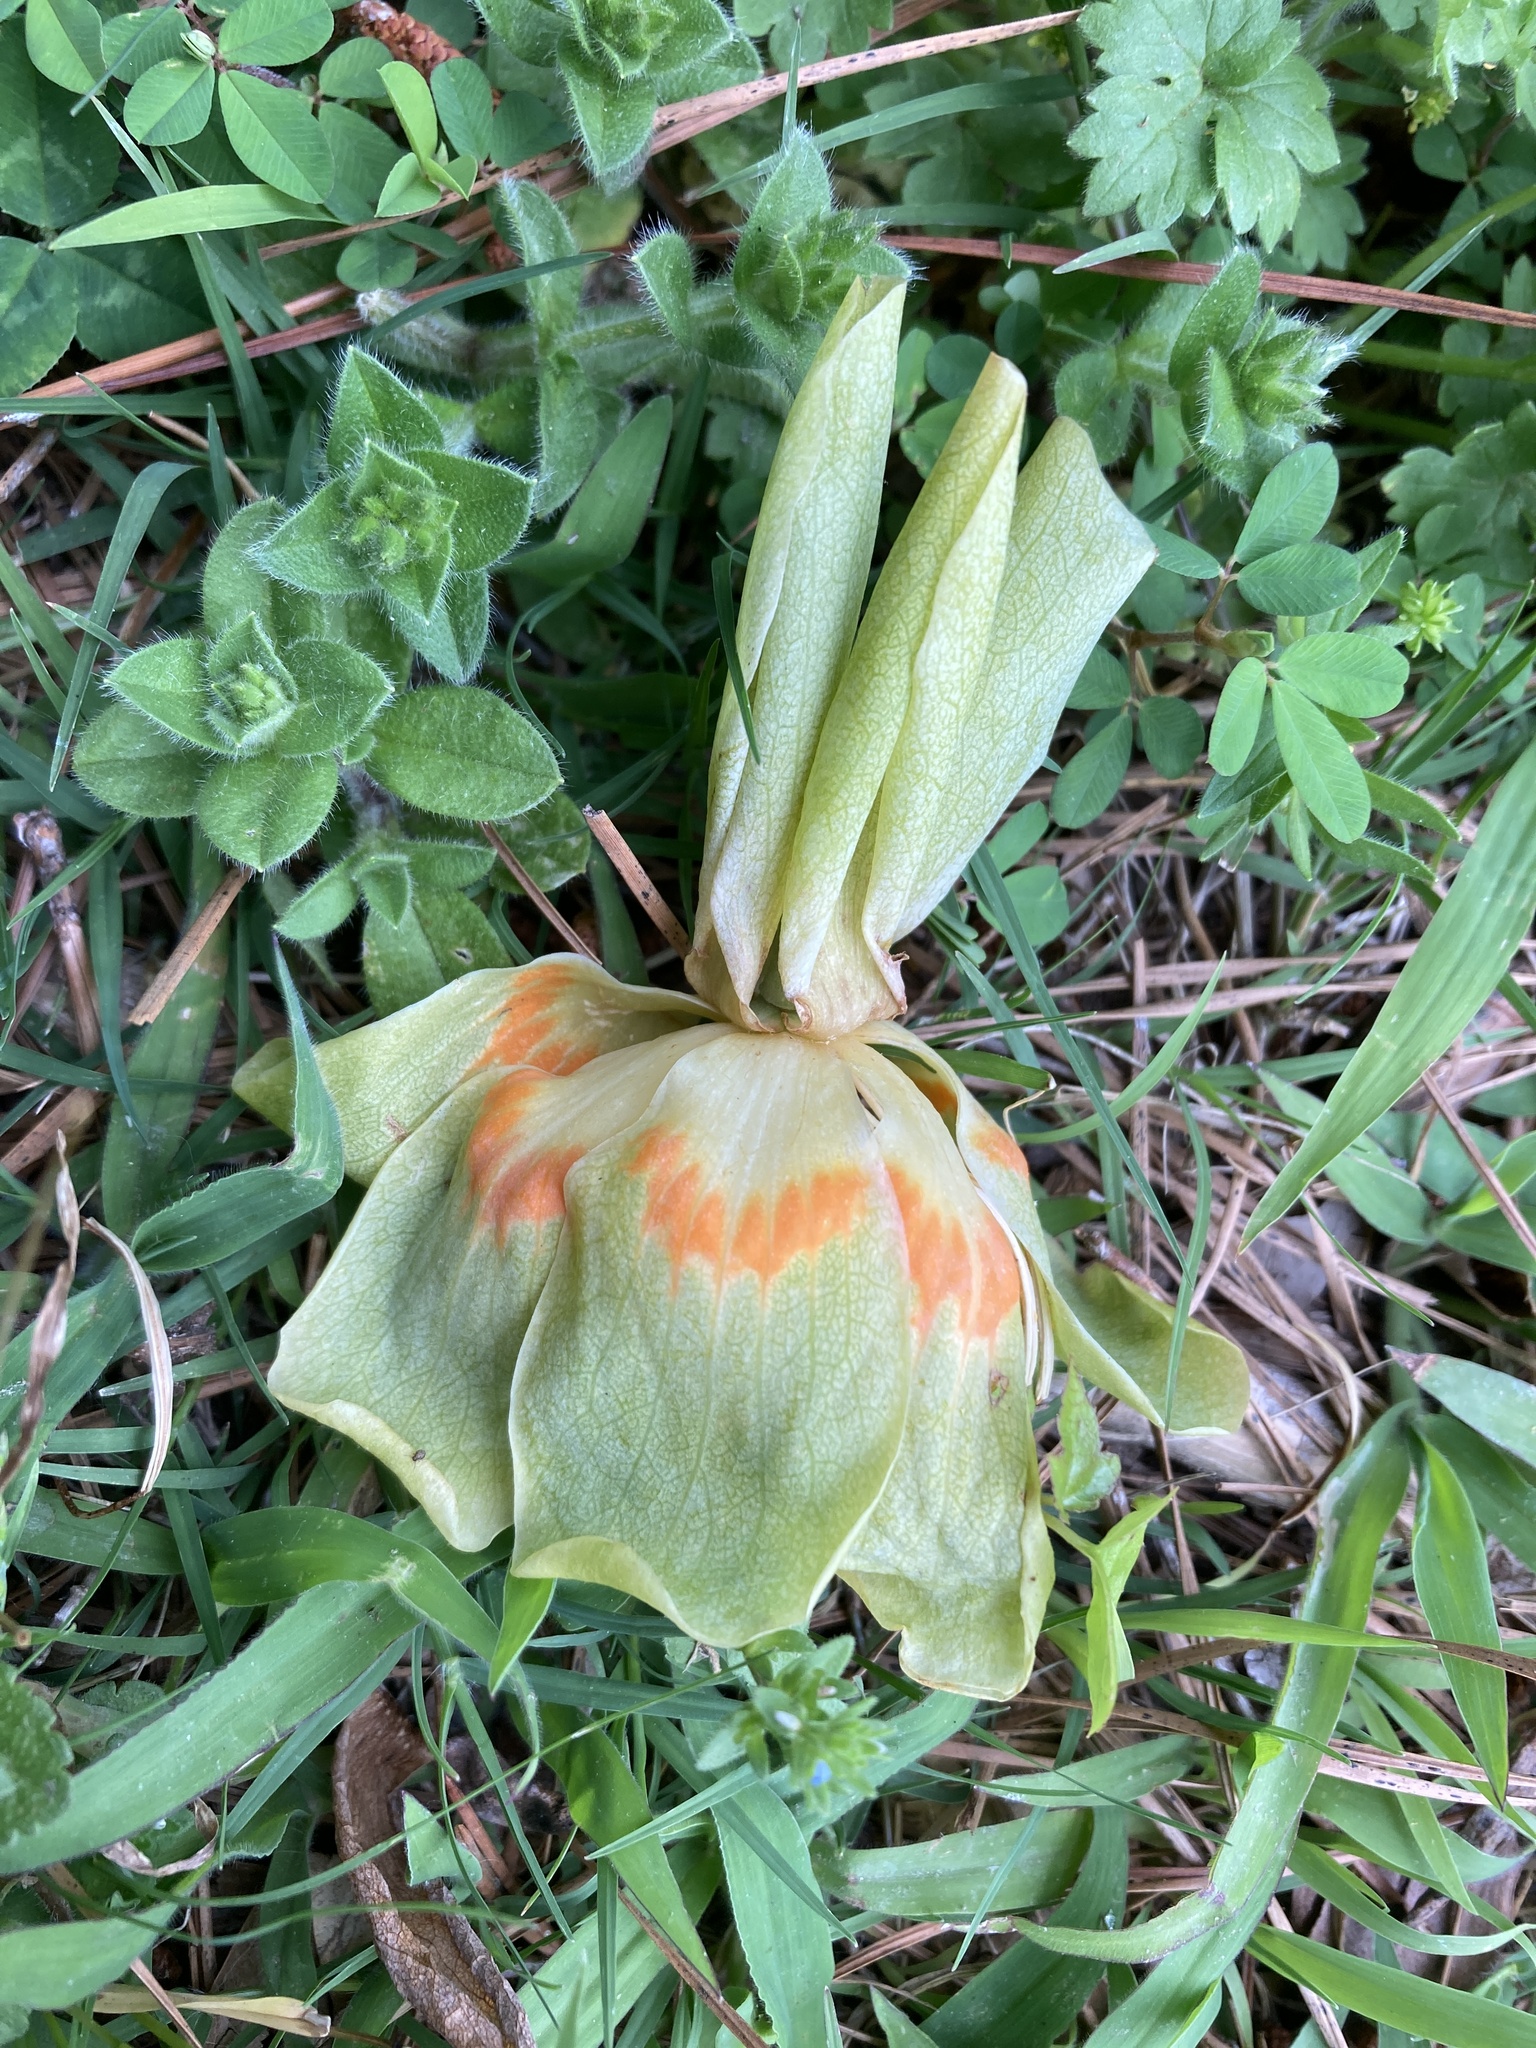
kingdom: Plantae
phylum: Tracheophyta
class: Magnoliopsida
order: Magnoliales
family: Magnoliaceae
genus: Liriodendron
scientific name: Liriodendron tulipifera
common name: Tulip tree
